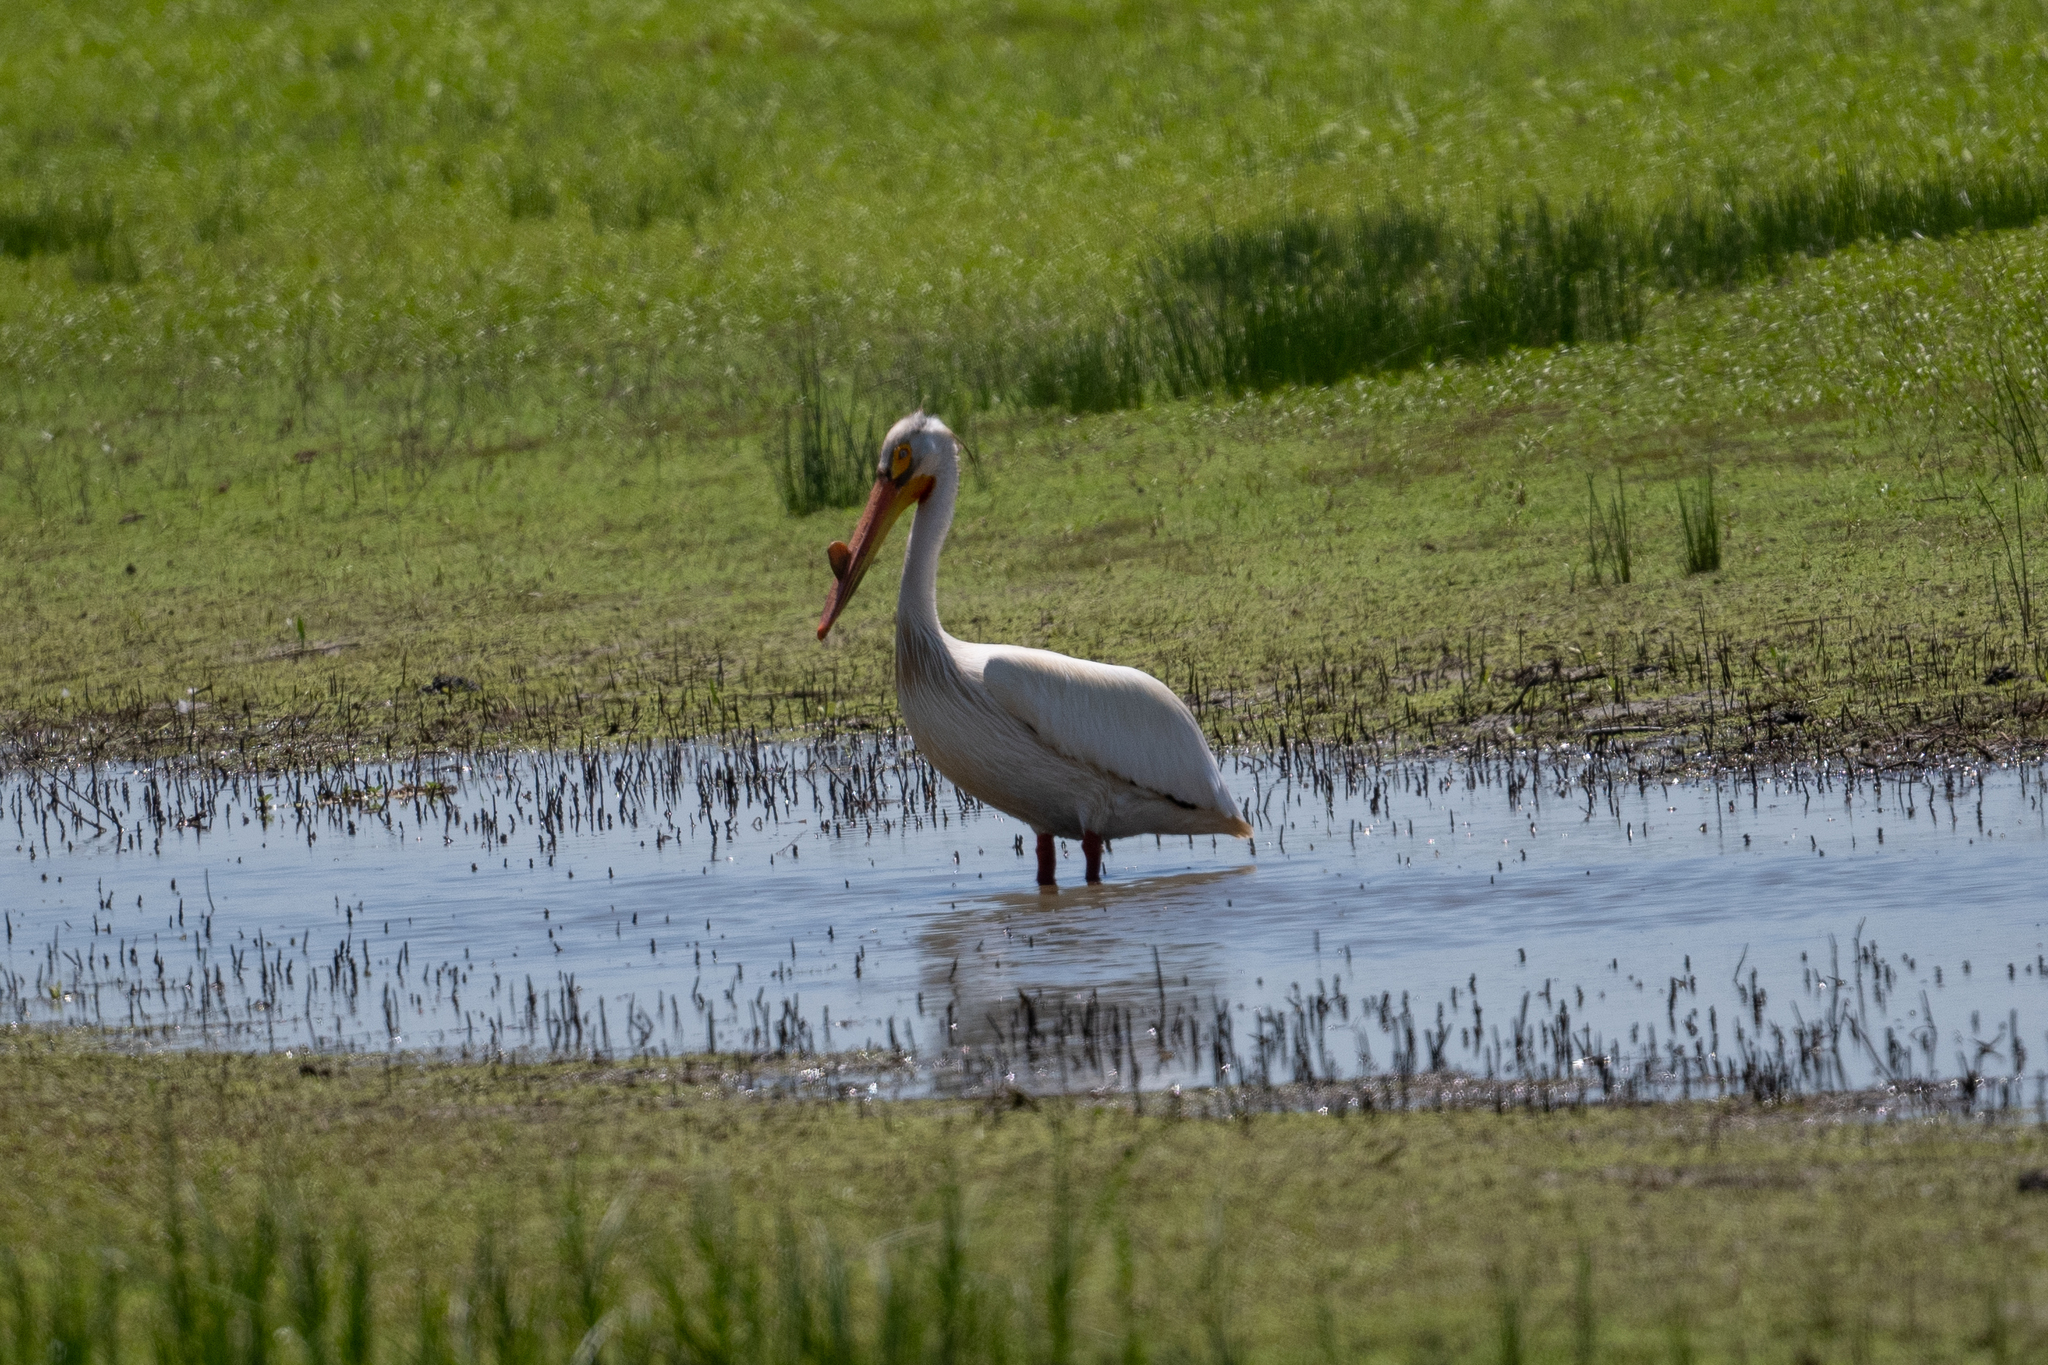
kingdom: Animalia
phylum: Chordata
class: Aves
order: Pelecaniformes
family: Pelecanidae
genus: Pelecanus
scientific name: Pelecanus erythrorhynchos
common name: American white pelican
